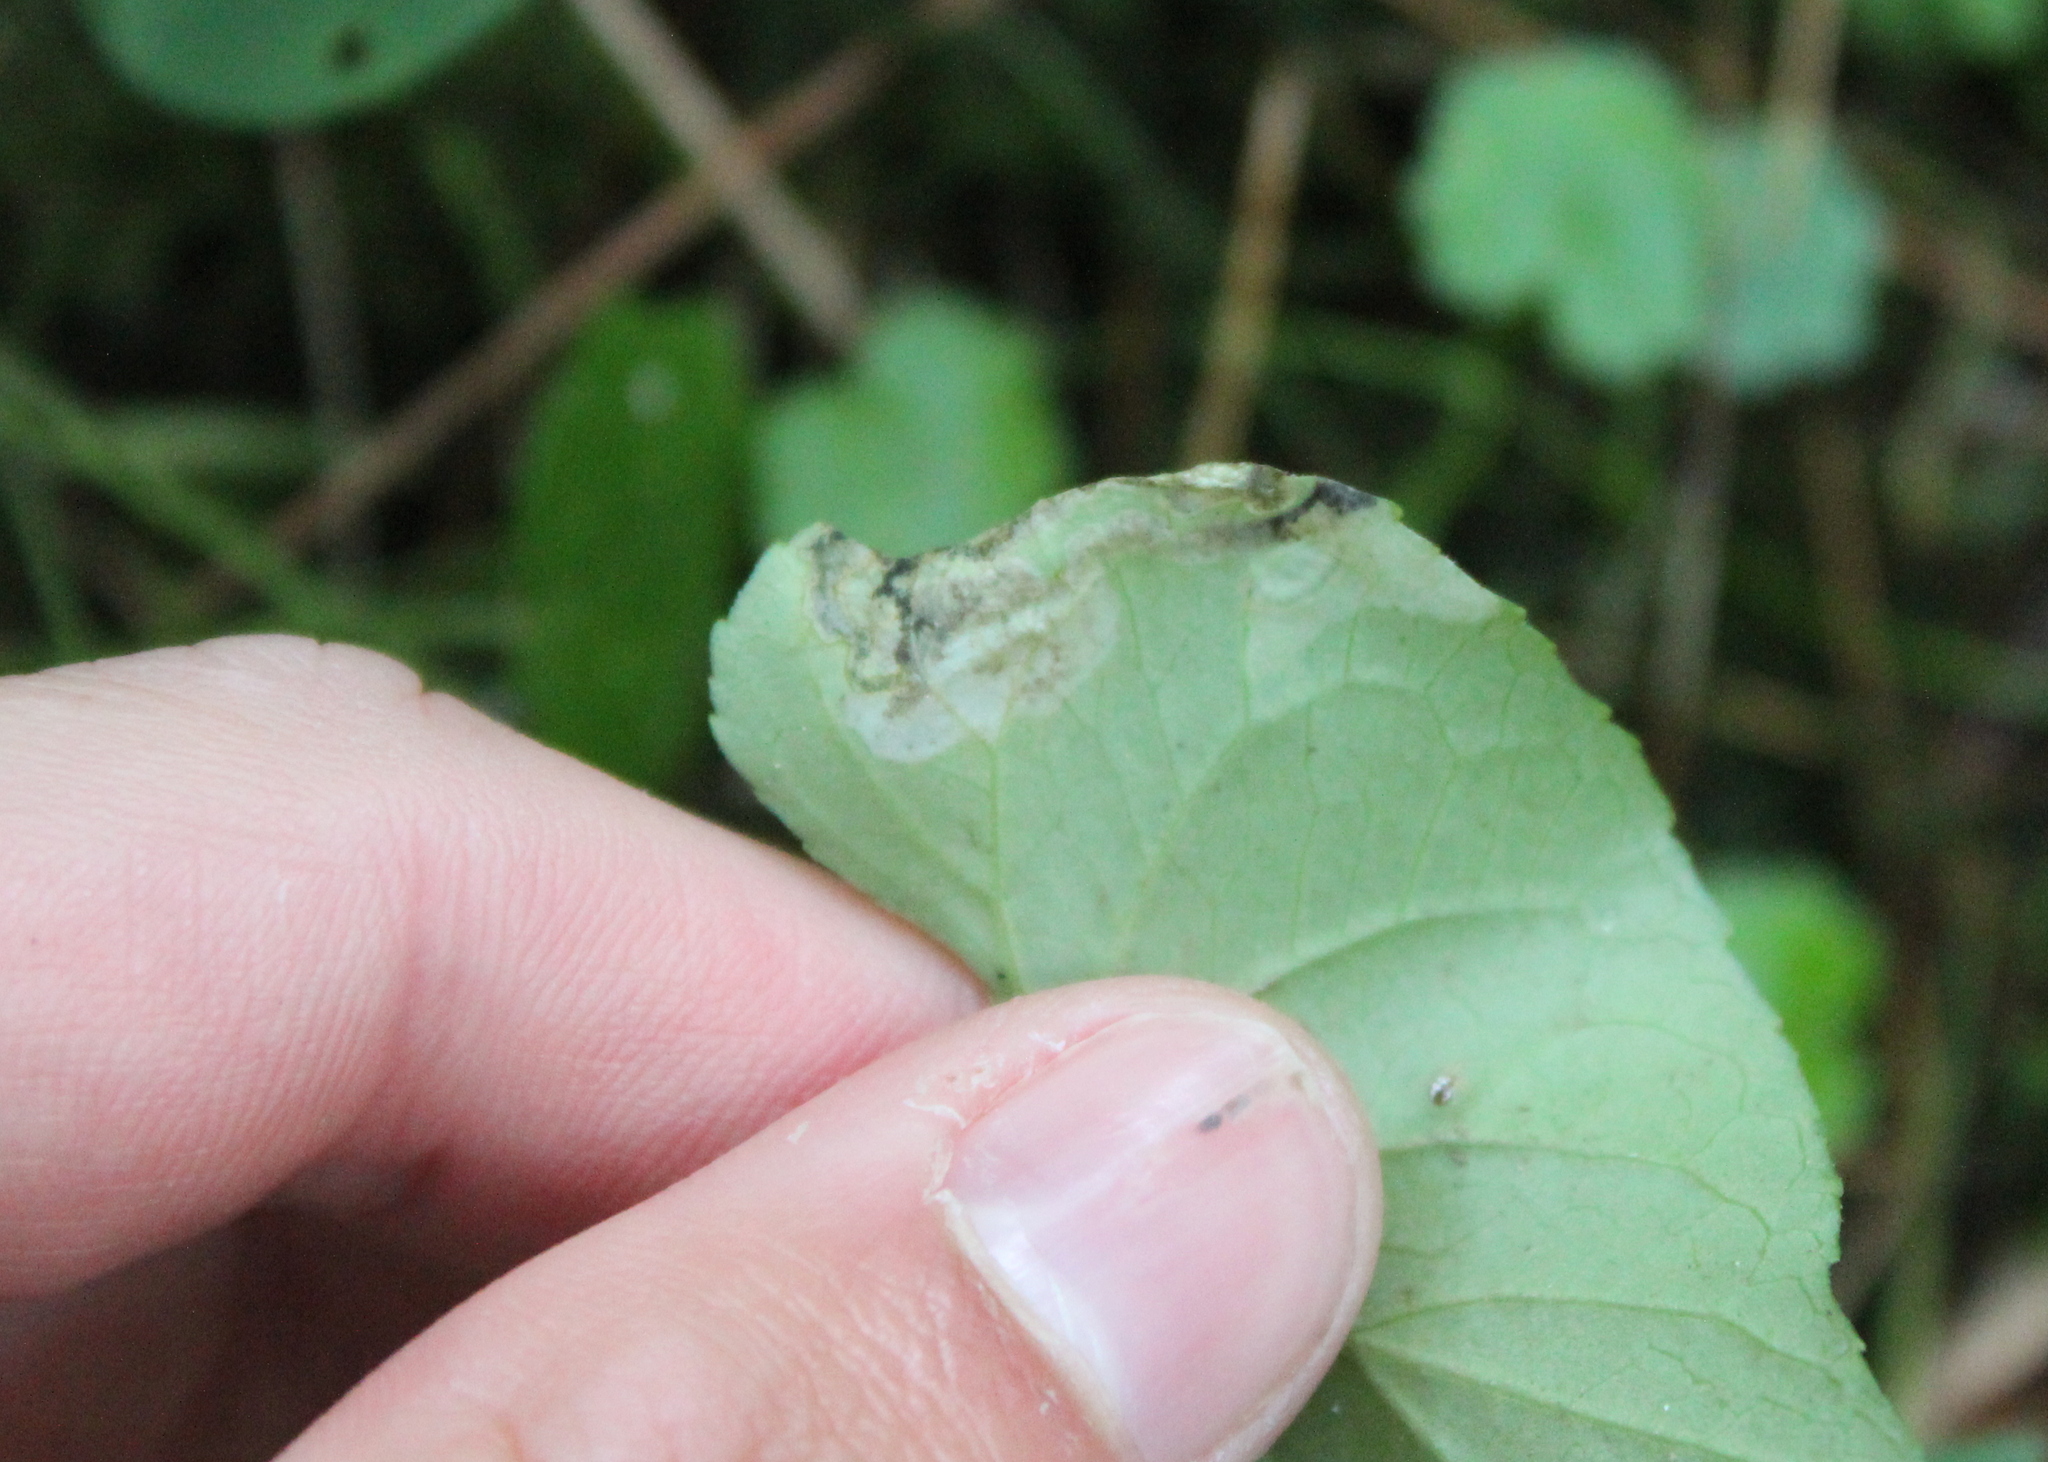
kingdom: Animalia
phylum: Arthropoda
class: Insecta
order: Hymenoptera
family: Tenthredinidae
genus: Nefusa
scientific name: Nefusa ambigua
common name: Violet leafmining sawfly
